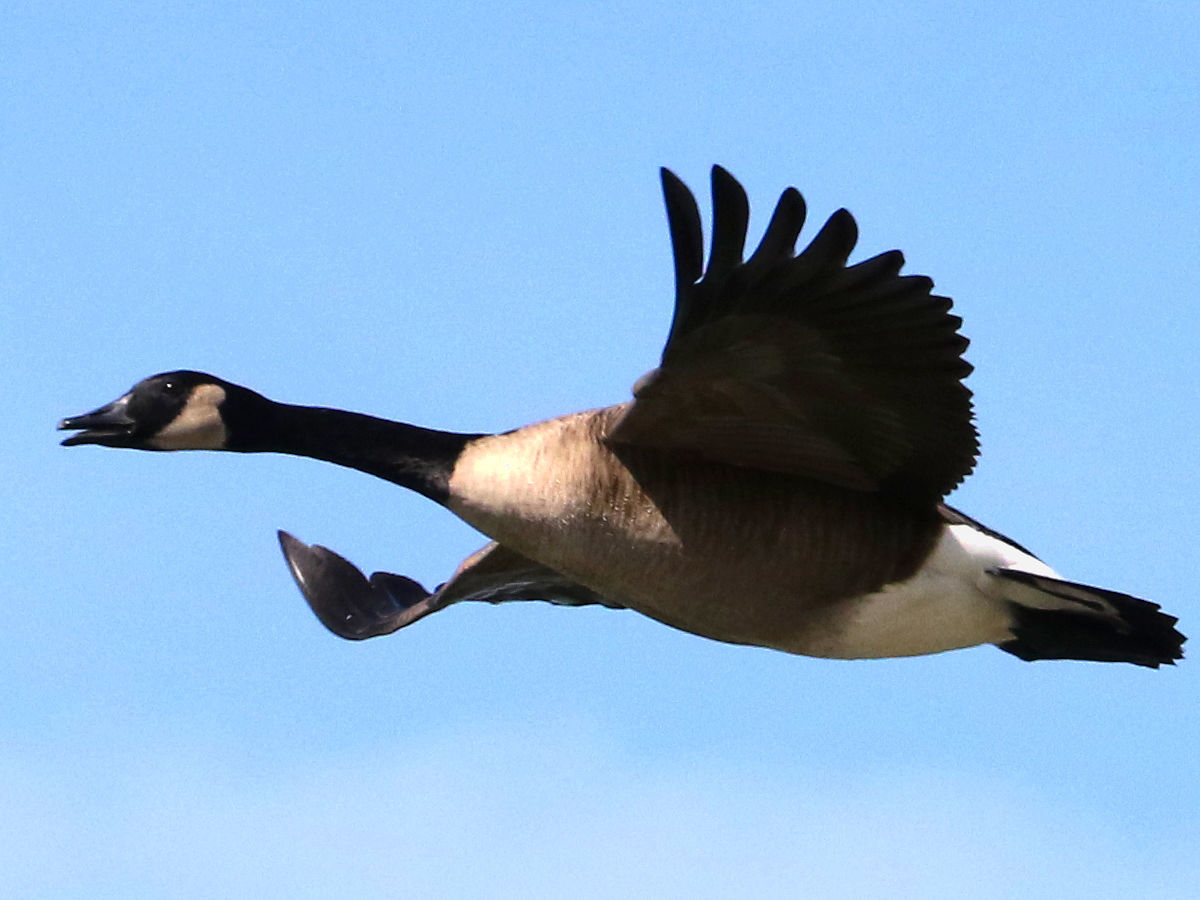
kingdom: Animalia
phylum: Chordata
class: Aves
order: Anseriformes
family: Anatidae
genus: Branta
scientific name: Branta canadensis
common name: Canada goose
